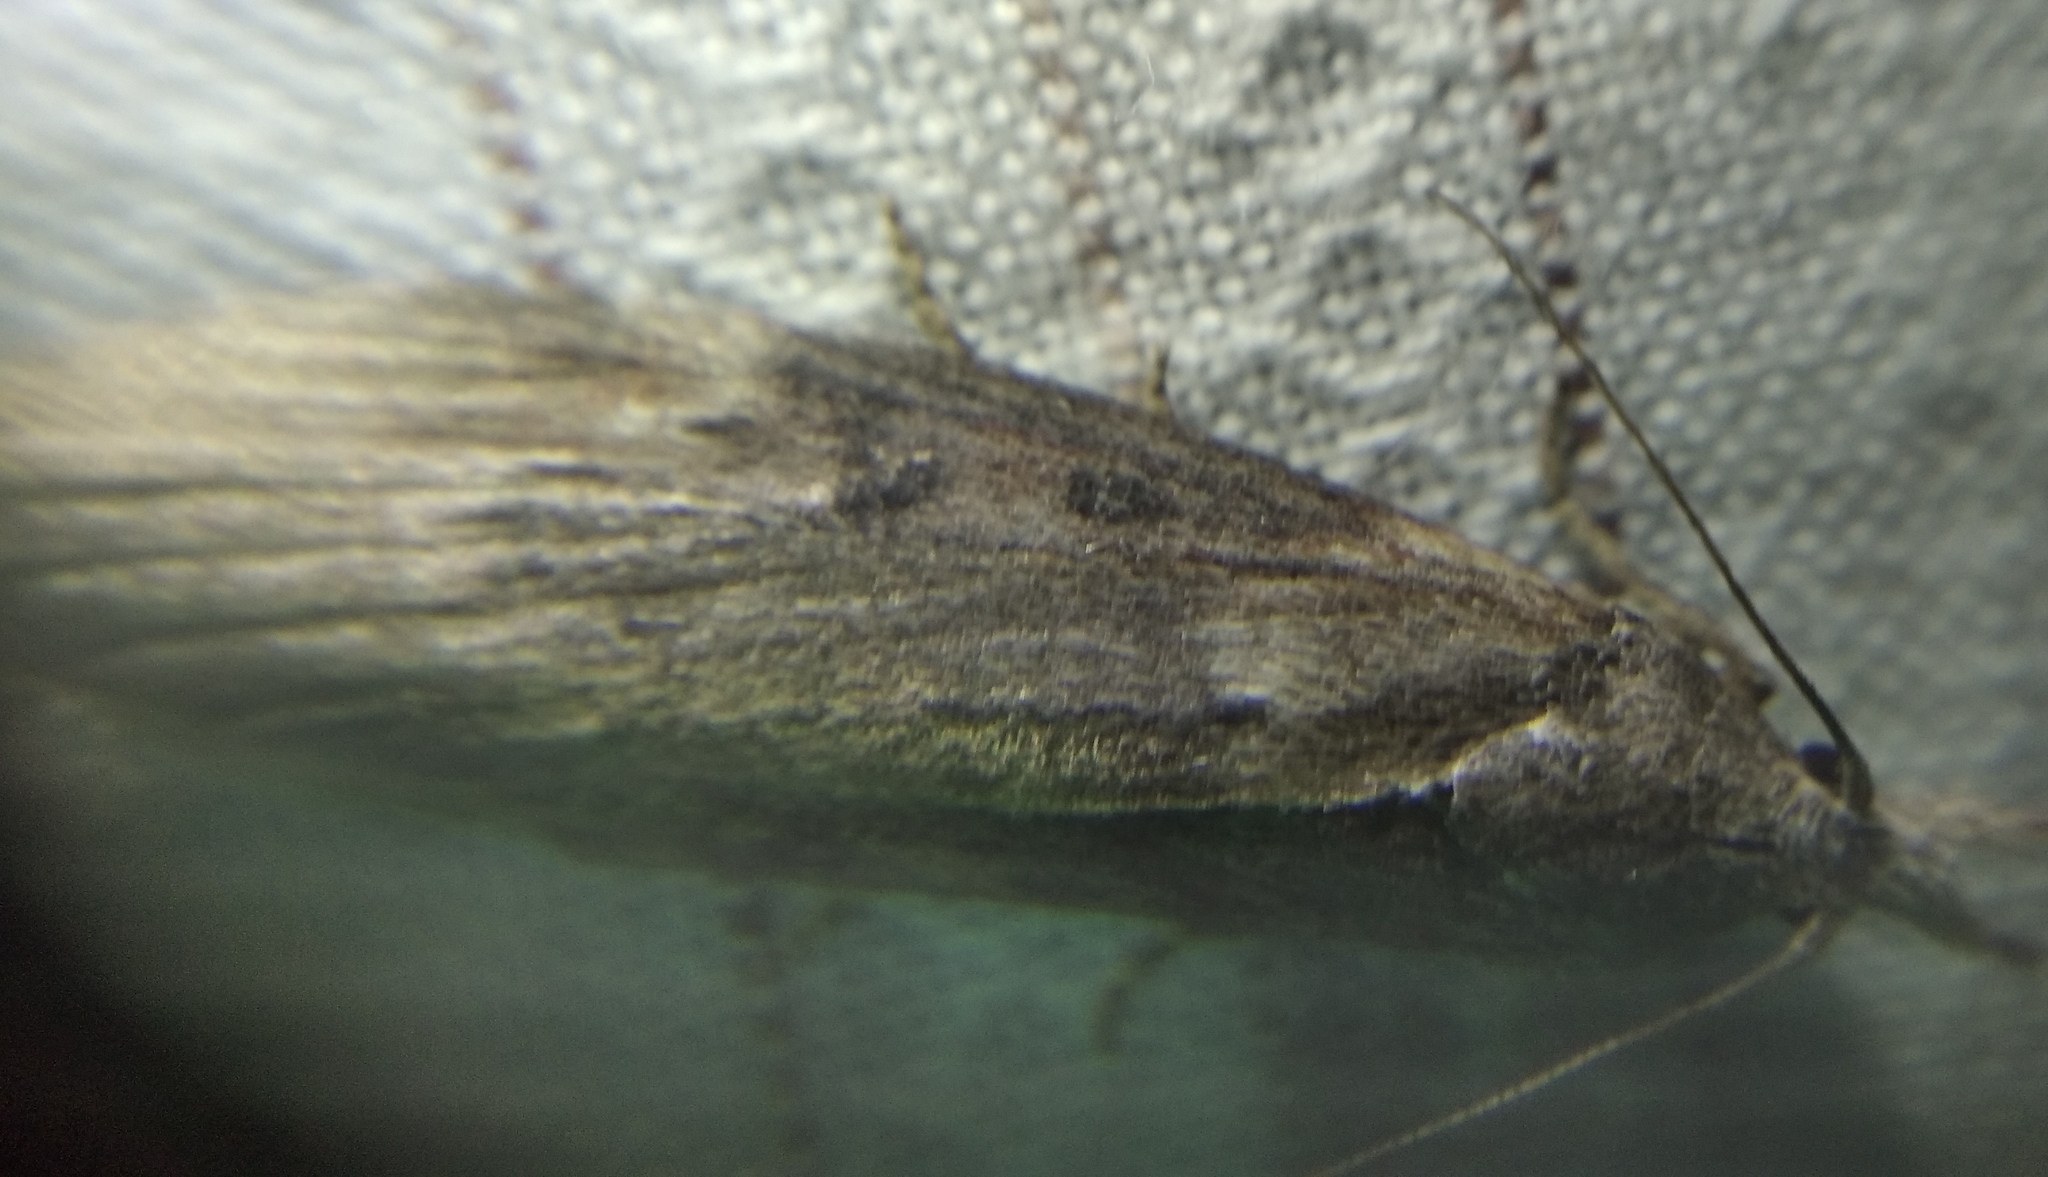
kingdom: Animalia
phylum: Arthropoda
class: Insecta
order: Lepidoptera
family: Pyralidae
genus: Lamoria
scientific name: Lamoria anella
